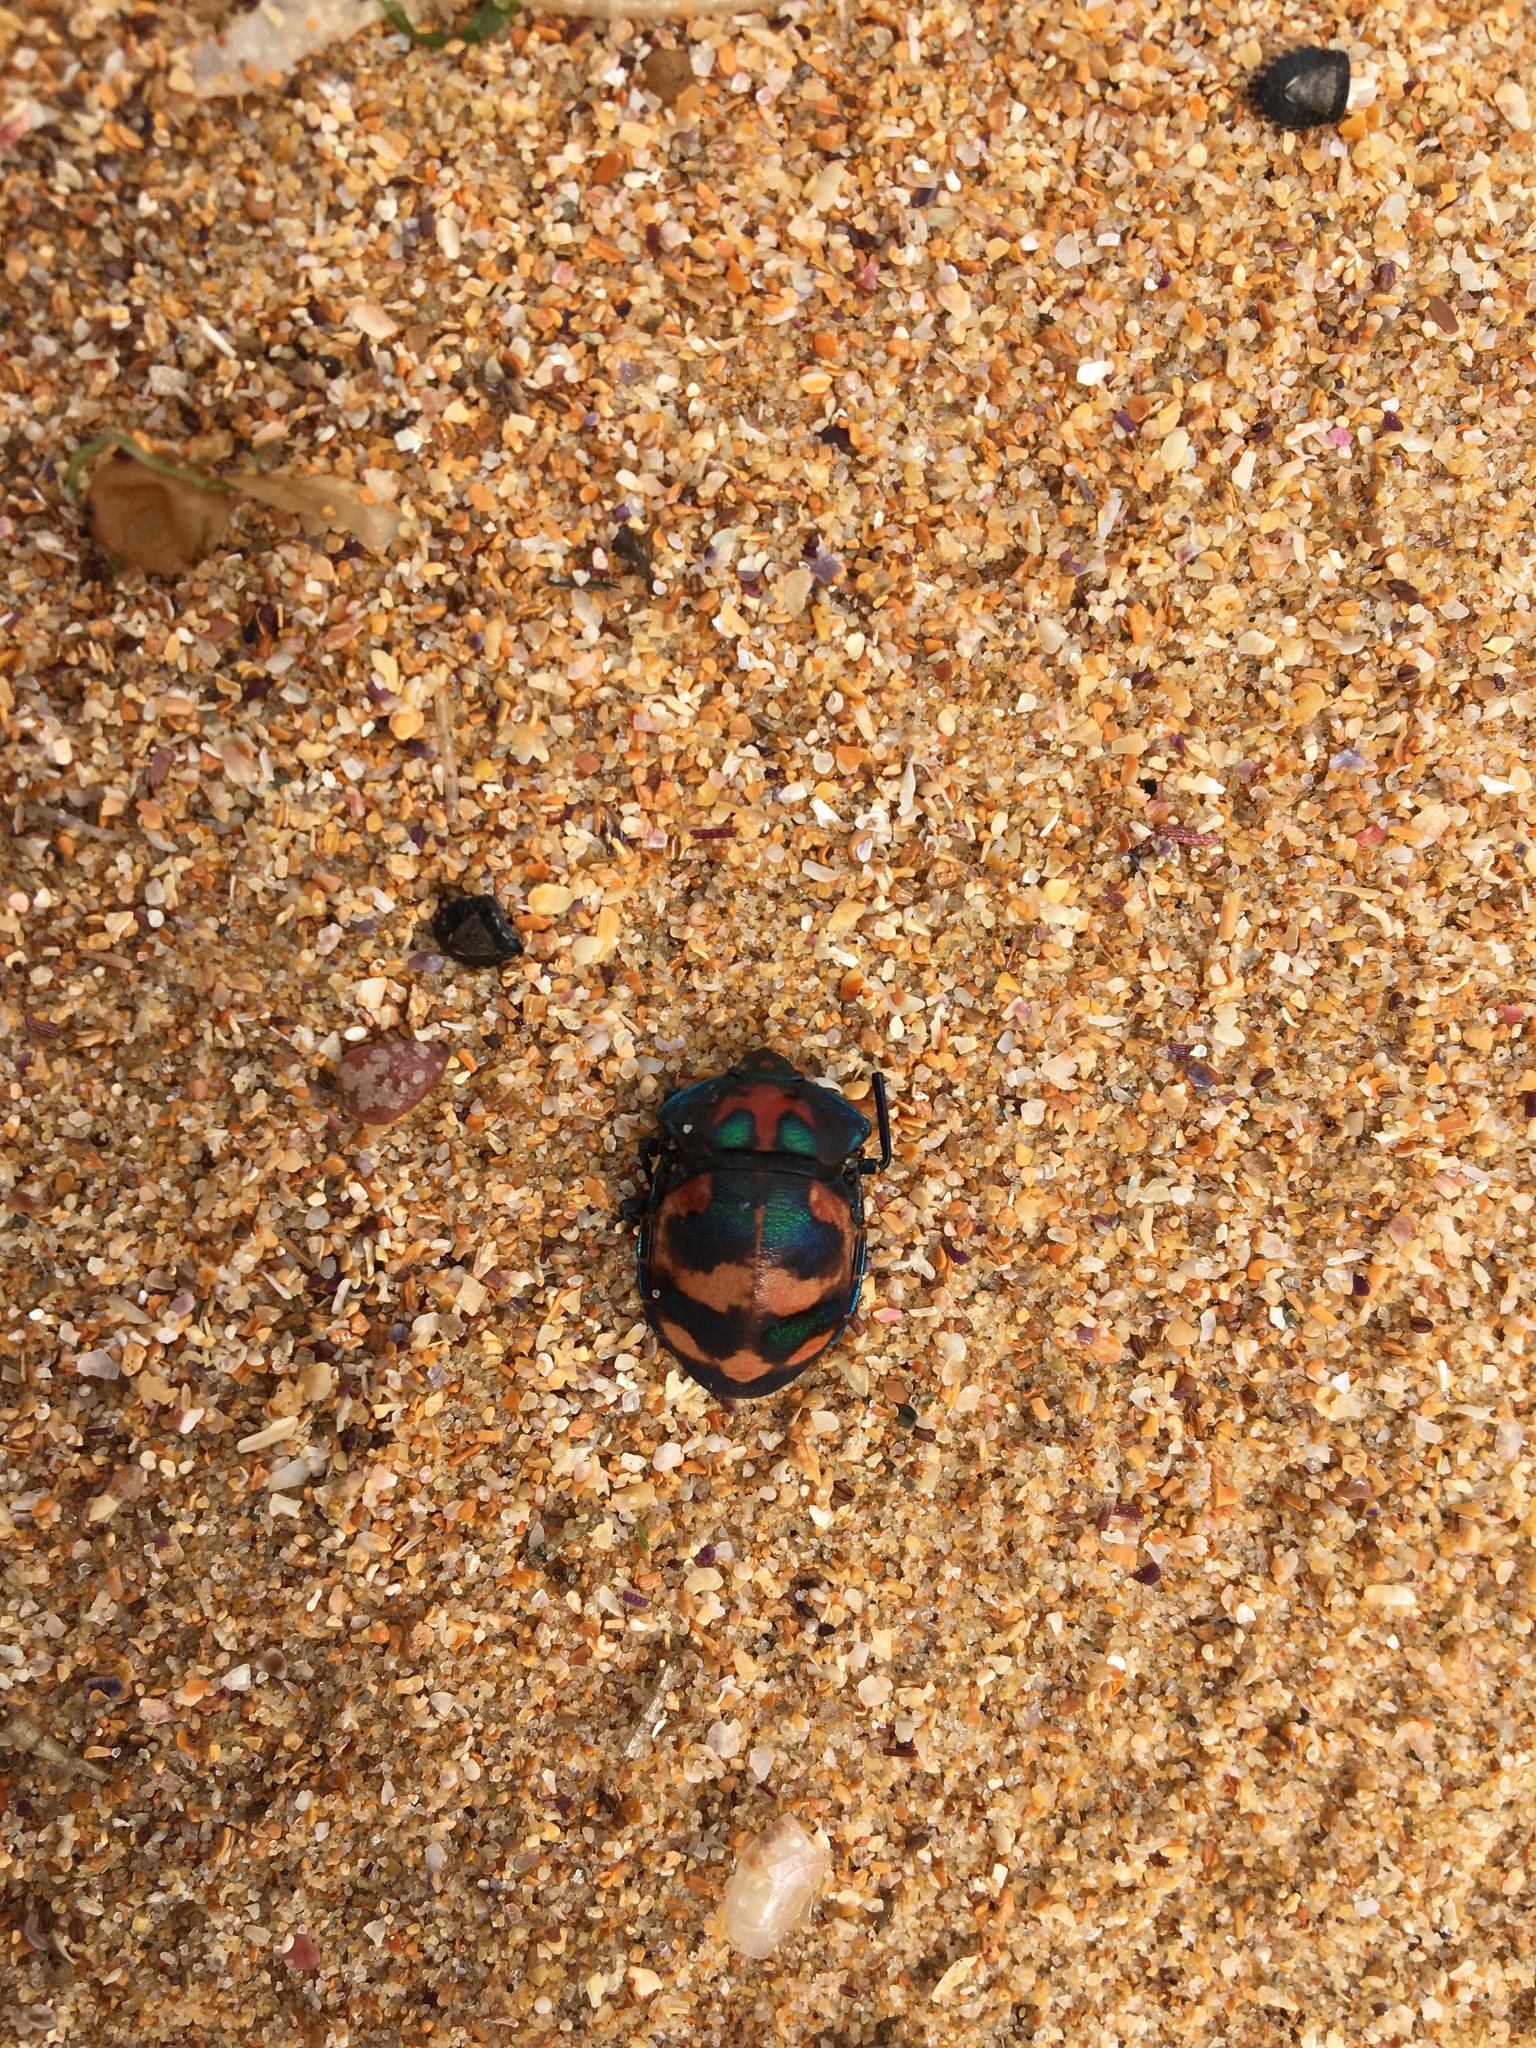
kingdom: Animalia
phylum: Arthropoda
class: Insecta
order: Hemiptera
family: Scutelleridae
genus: Tectocoris
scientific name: Tectocoris diophthalmus
